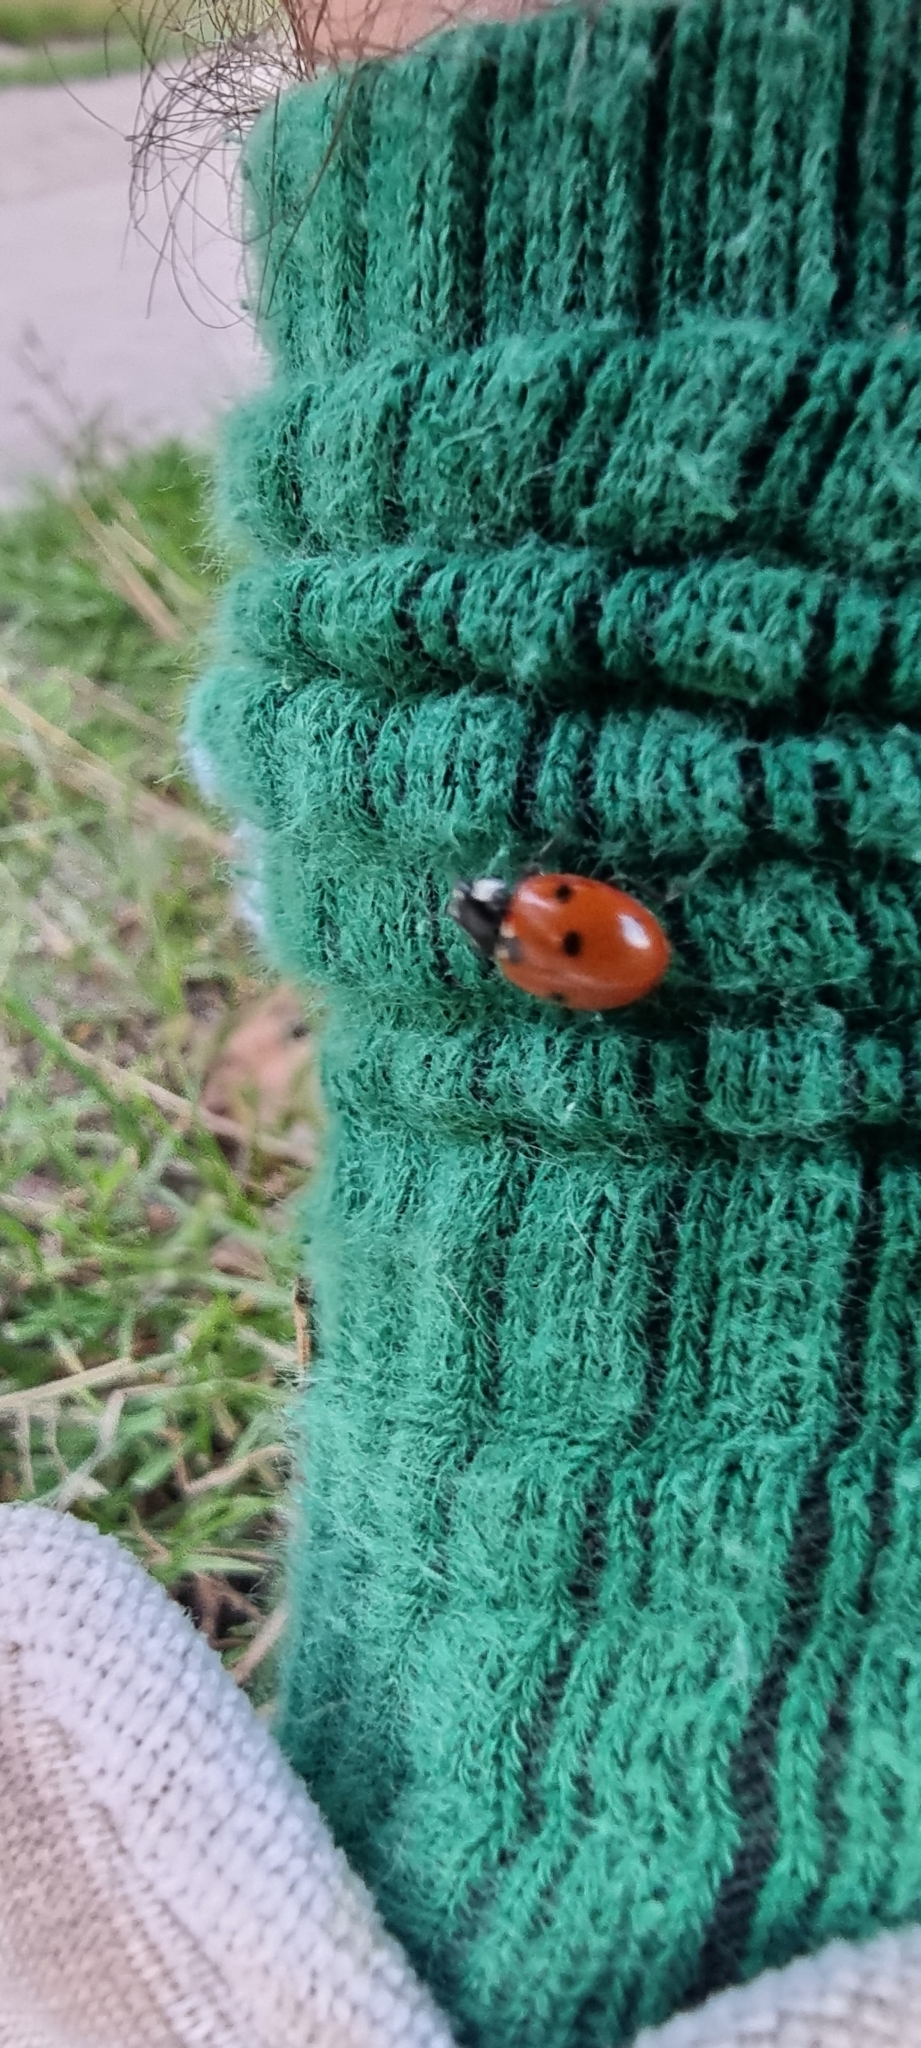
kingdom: Animalia
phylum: Arthropoda
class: Insecta
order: Coleoptera
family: Coccinellidae
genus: Coccinella
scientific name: Coccinella septempunctata
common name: Sevenspotted lady beetle
